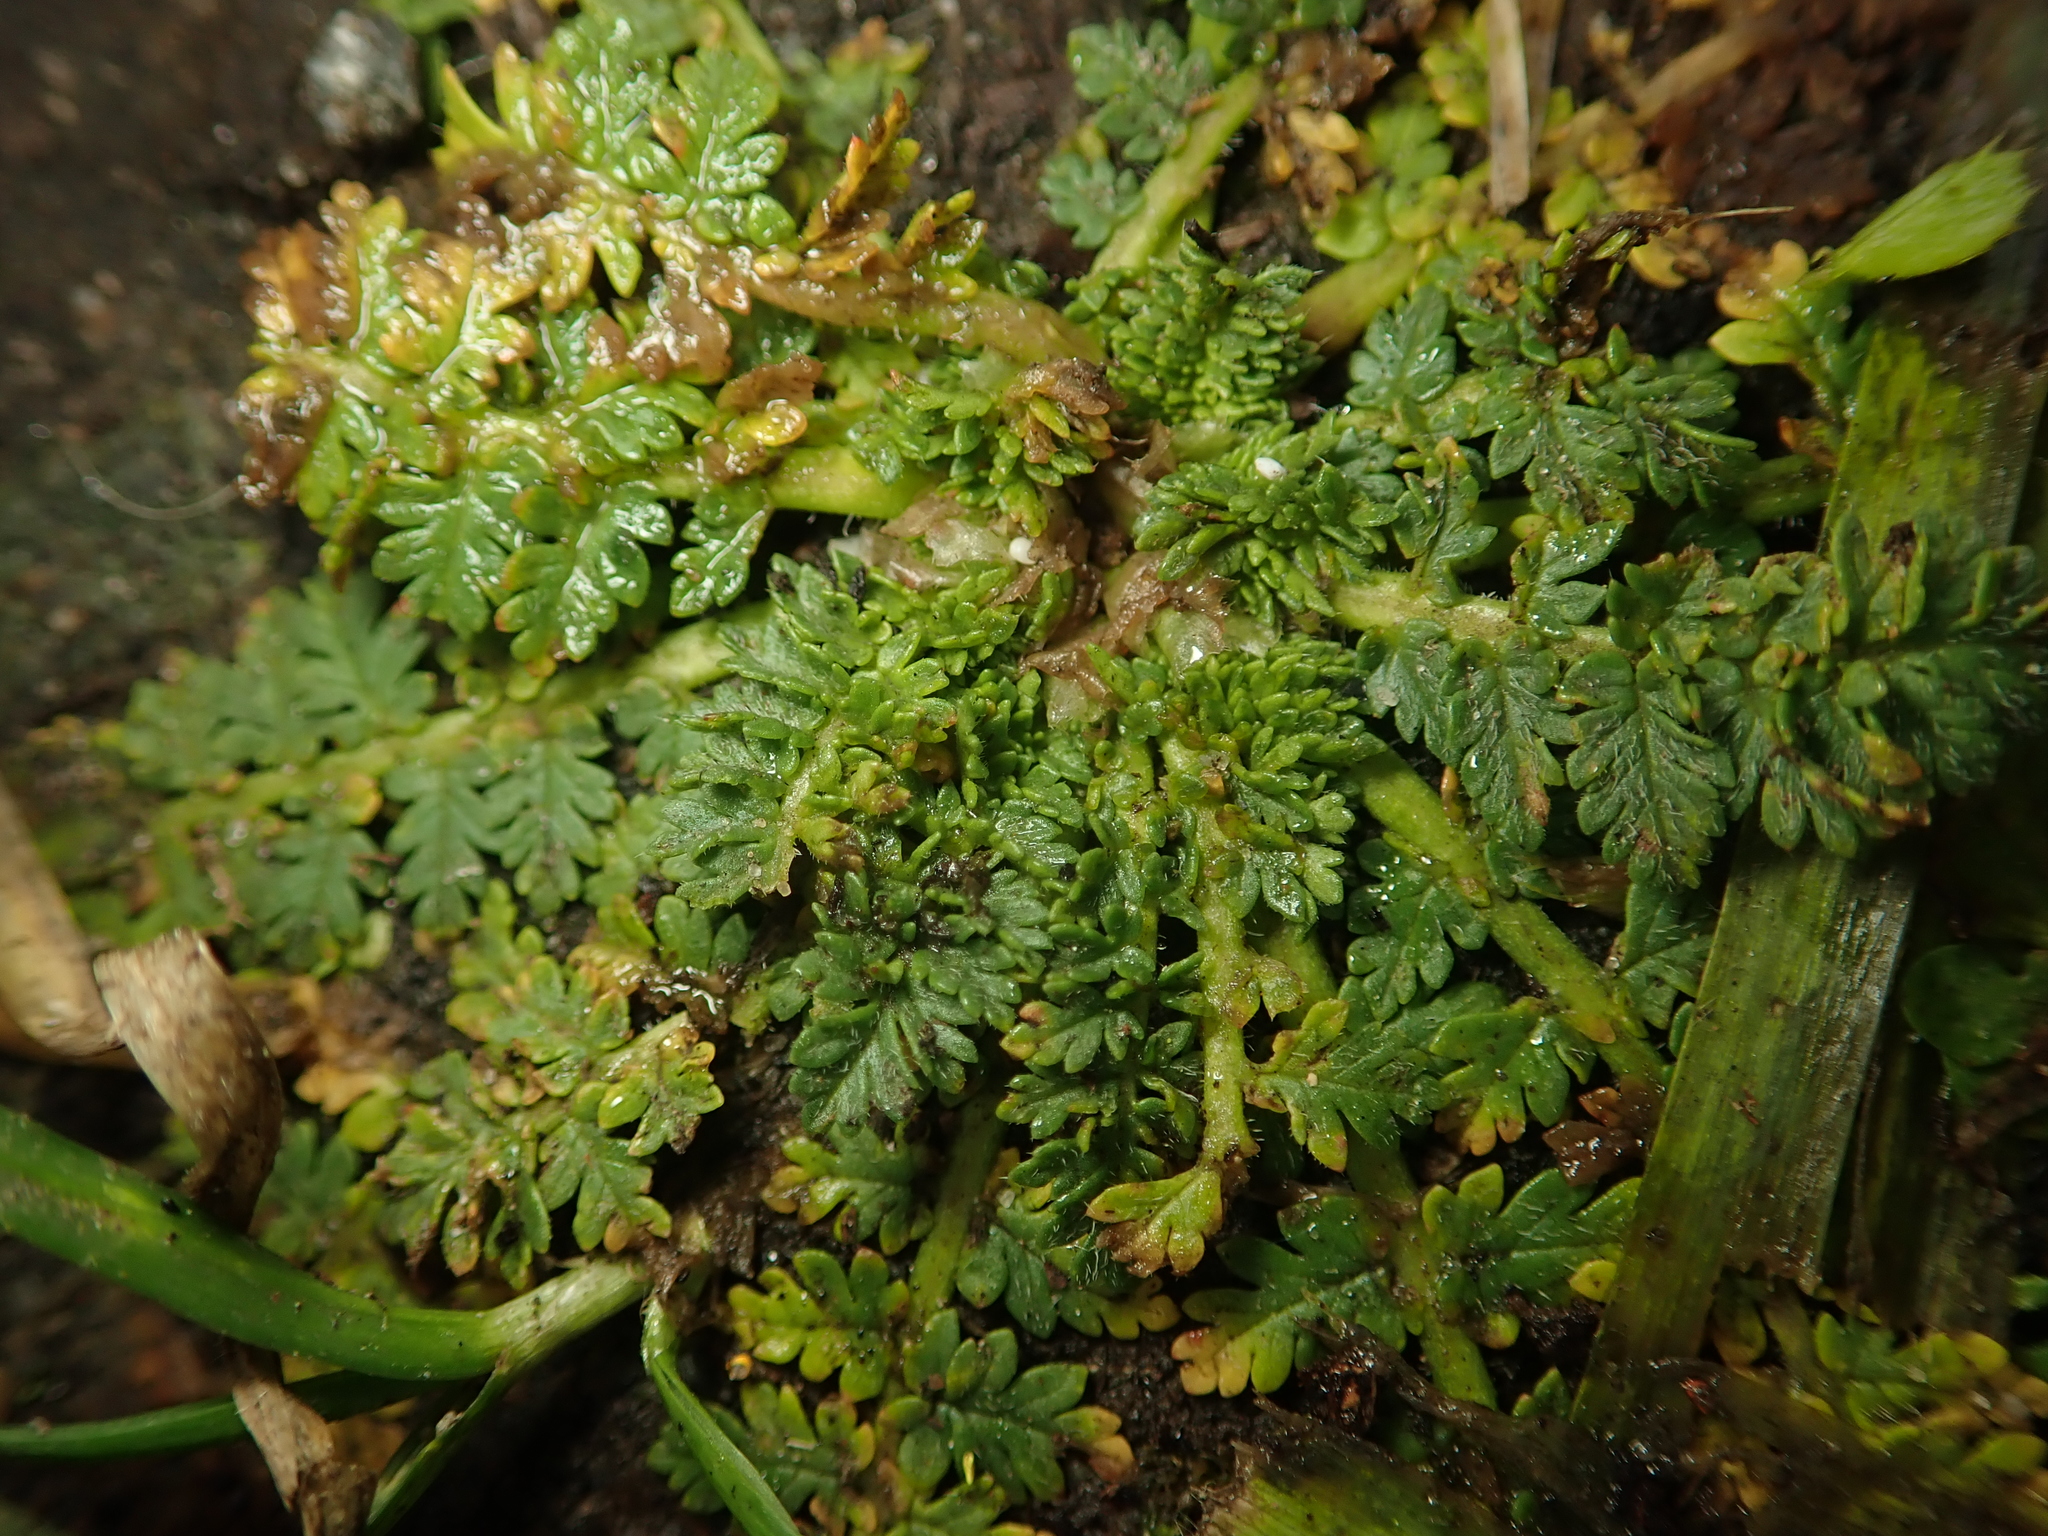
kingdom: Plantae
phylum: Tracheophyta
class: Magnoliopsida
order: Geraniales
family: Geraniaceae
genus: Erodium
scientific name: Erodium cicutarium
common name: Common stork's-bill
